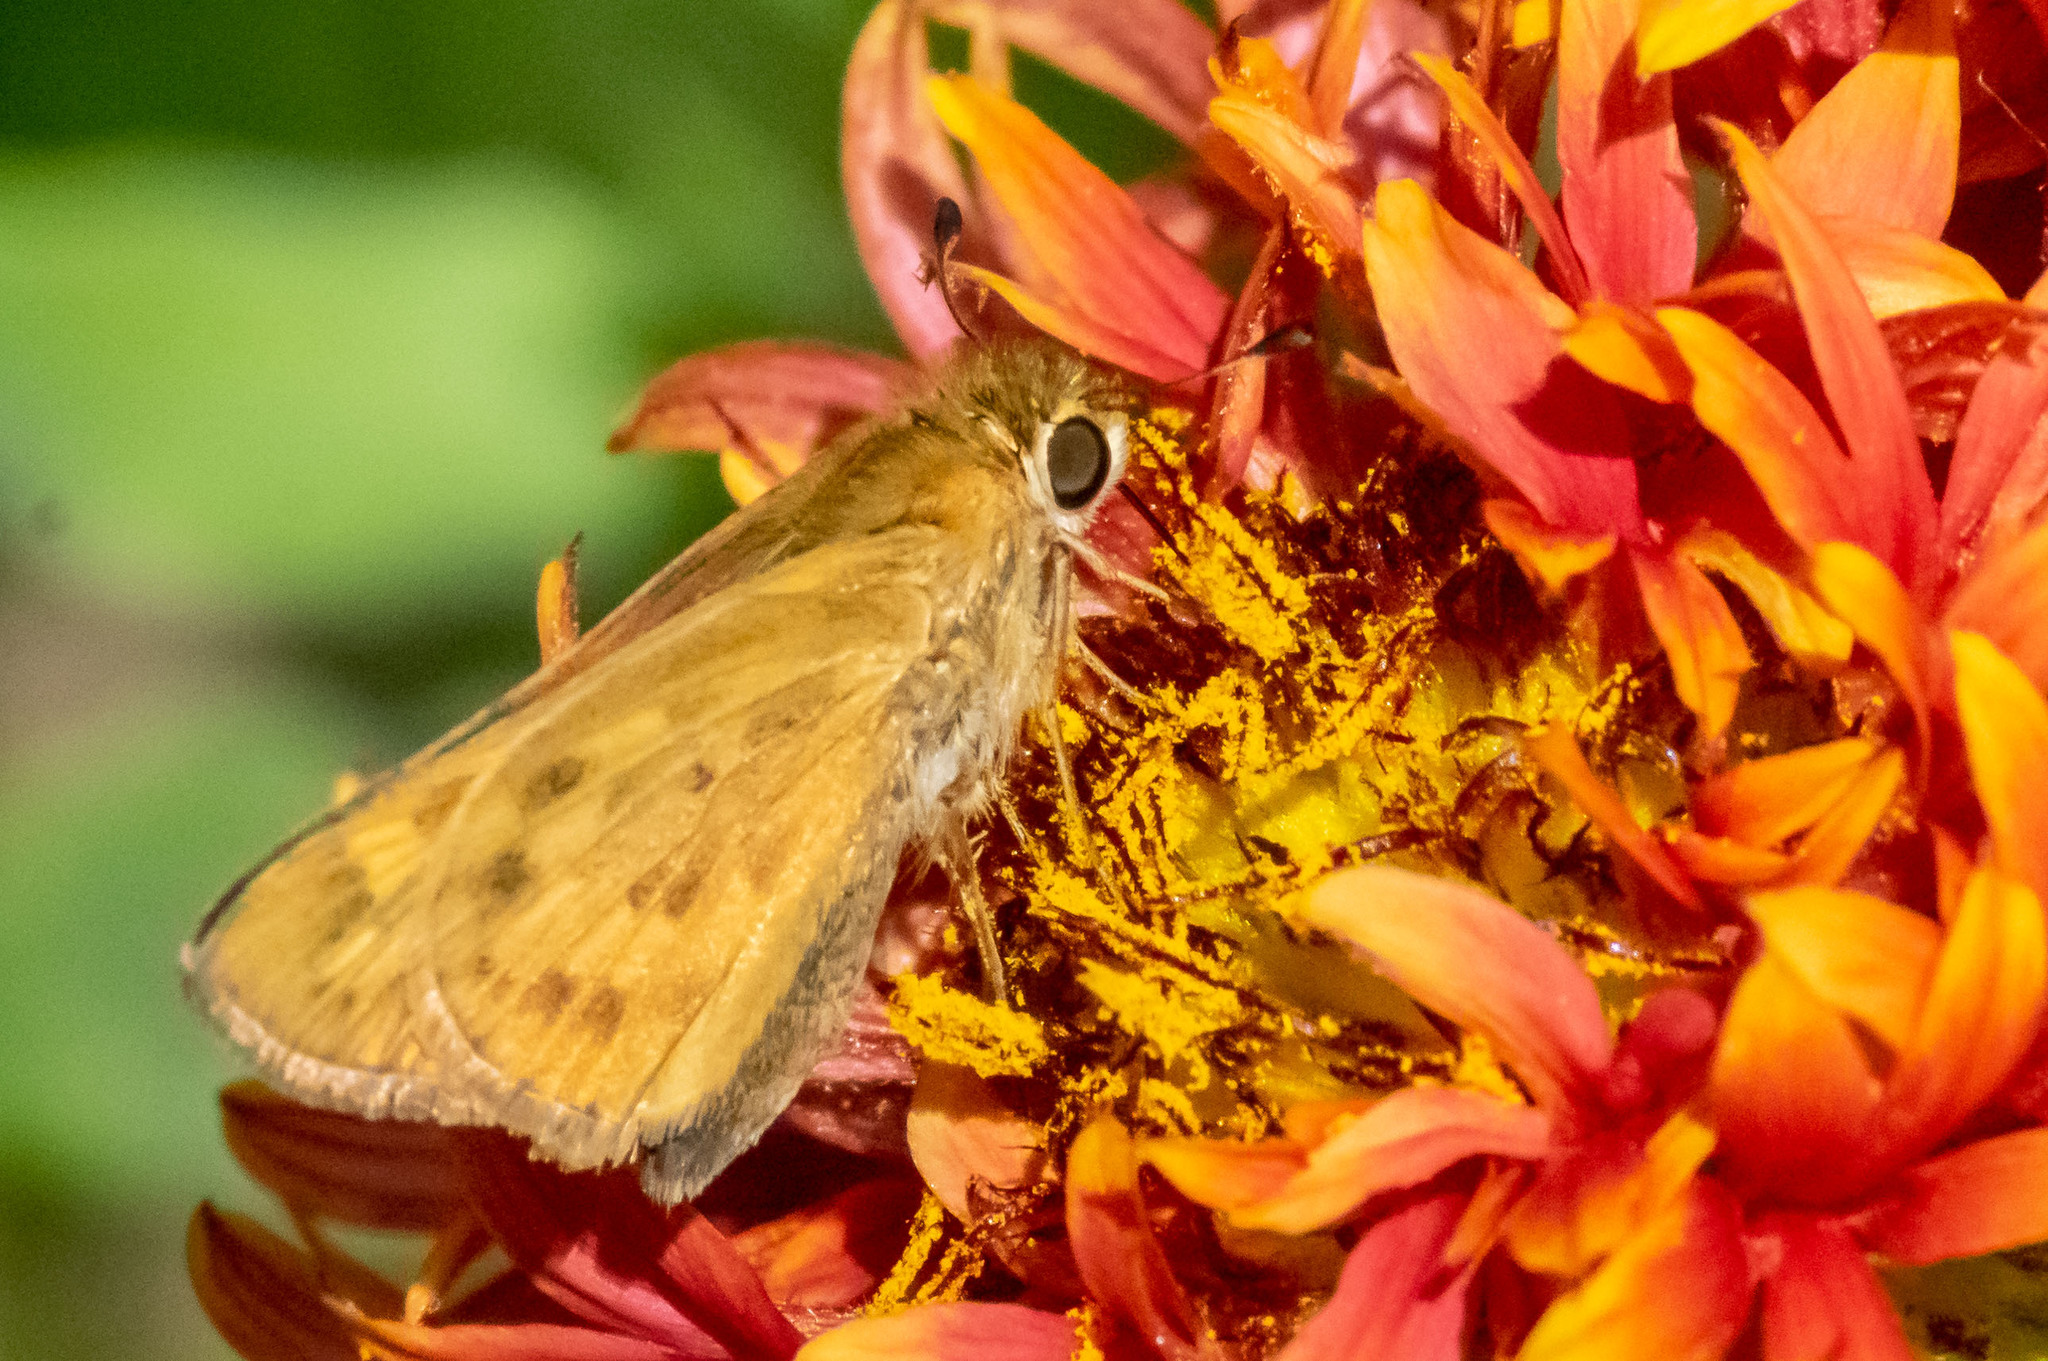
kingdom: Animalia
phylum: Arthropoda
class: Insecta
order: Lepidoptera
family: Hesperiidae
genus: Hylephila
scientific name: Hylephila phyleus
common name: Fiery skipper
